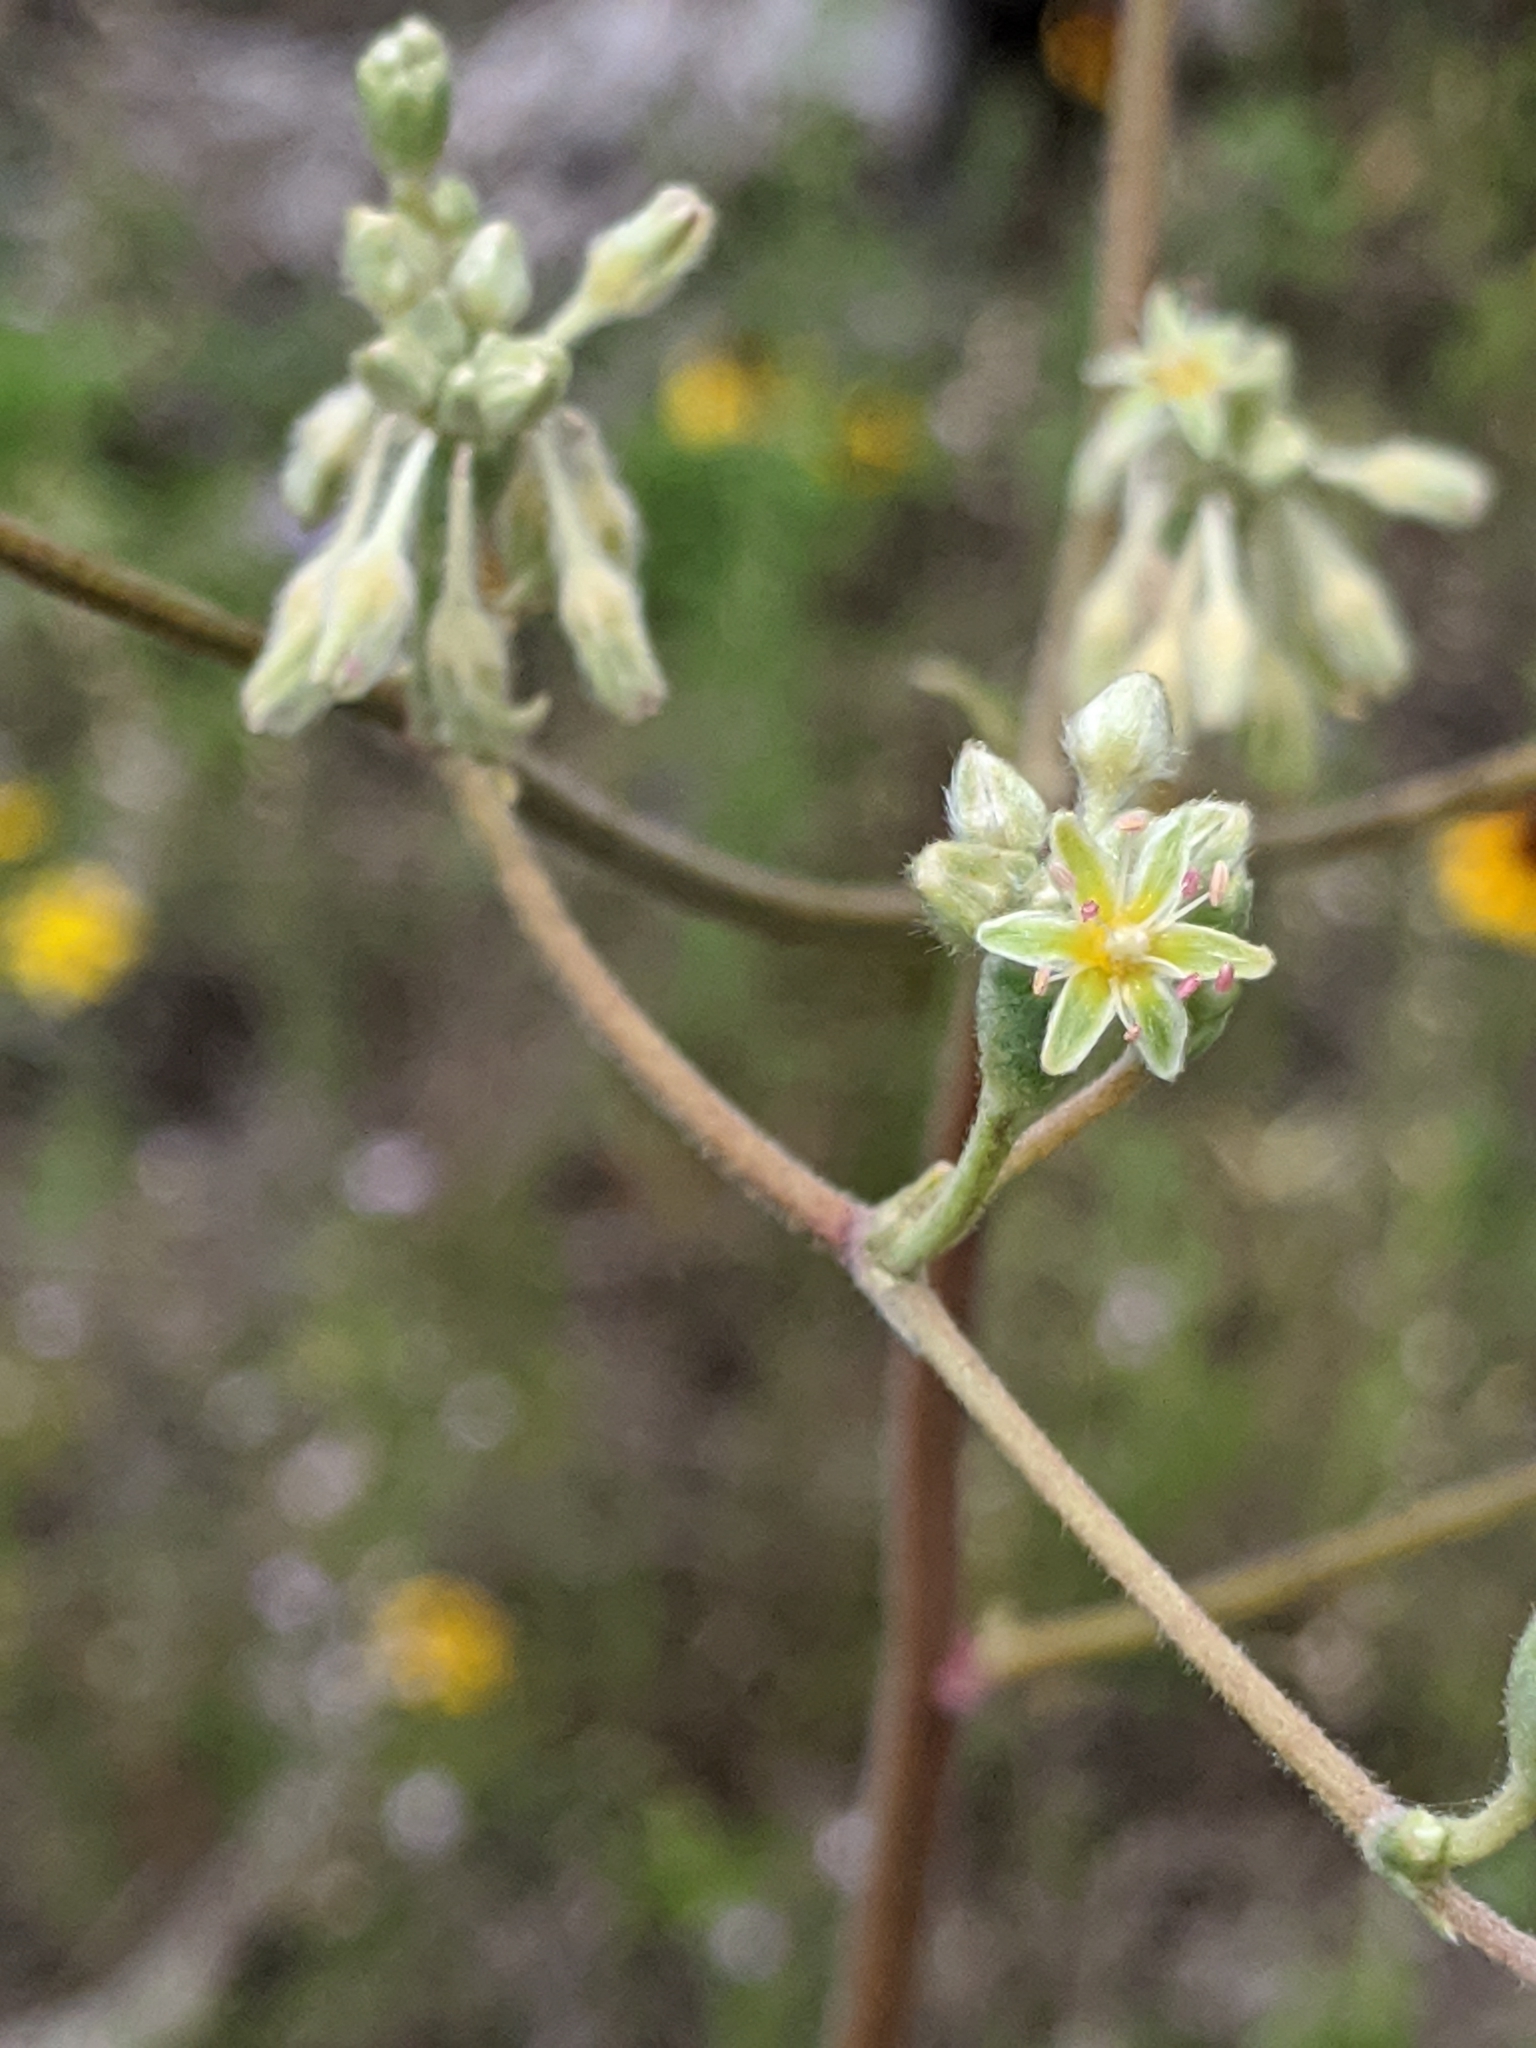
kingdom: Plantae
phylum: Tracheophyta
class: Magnoliopsida
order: Caryophyllales
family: Polygonaceae
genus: Eriogonum
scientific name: Eriogonum longifolium
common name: Longleaf wild buckwheat
